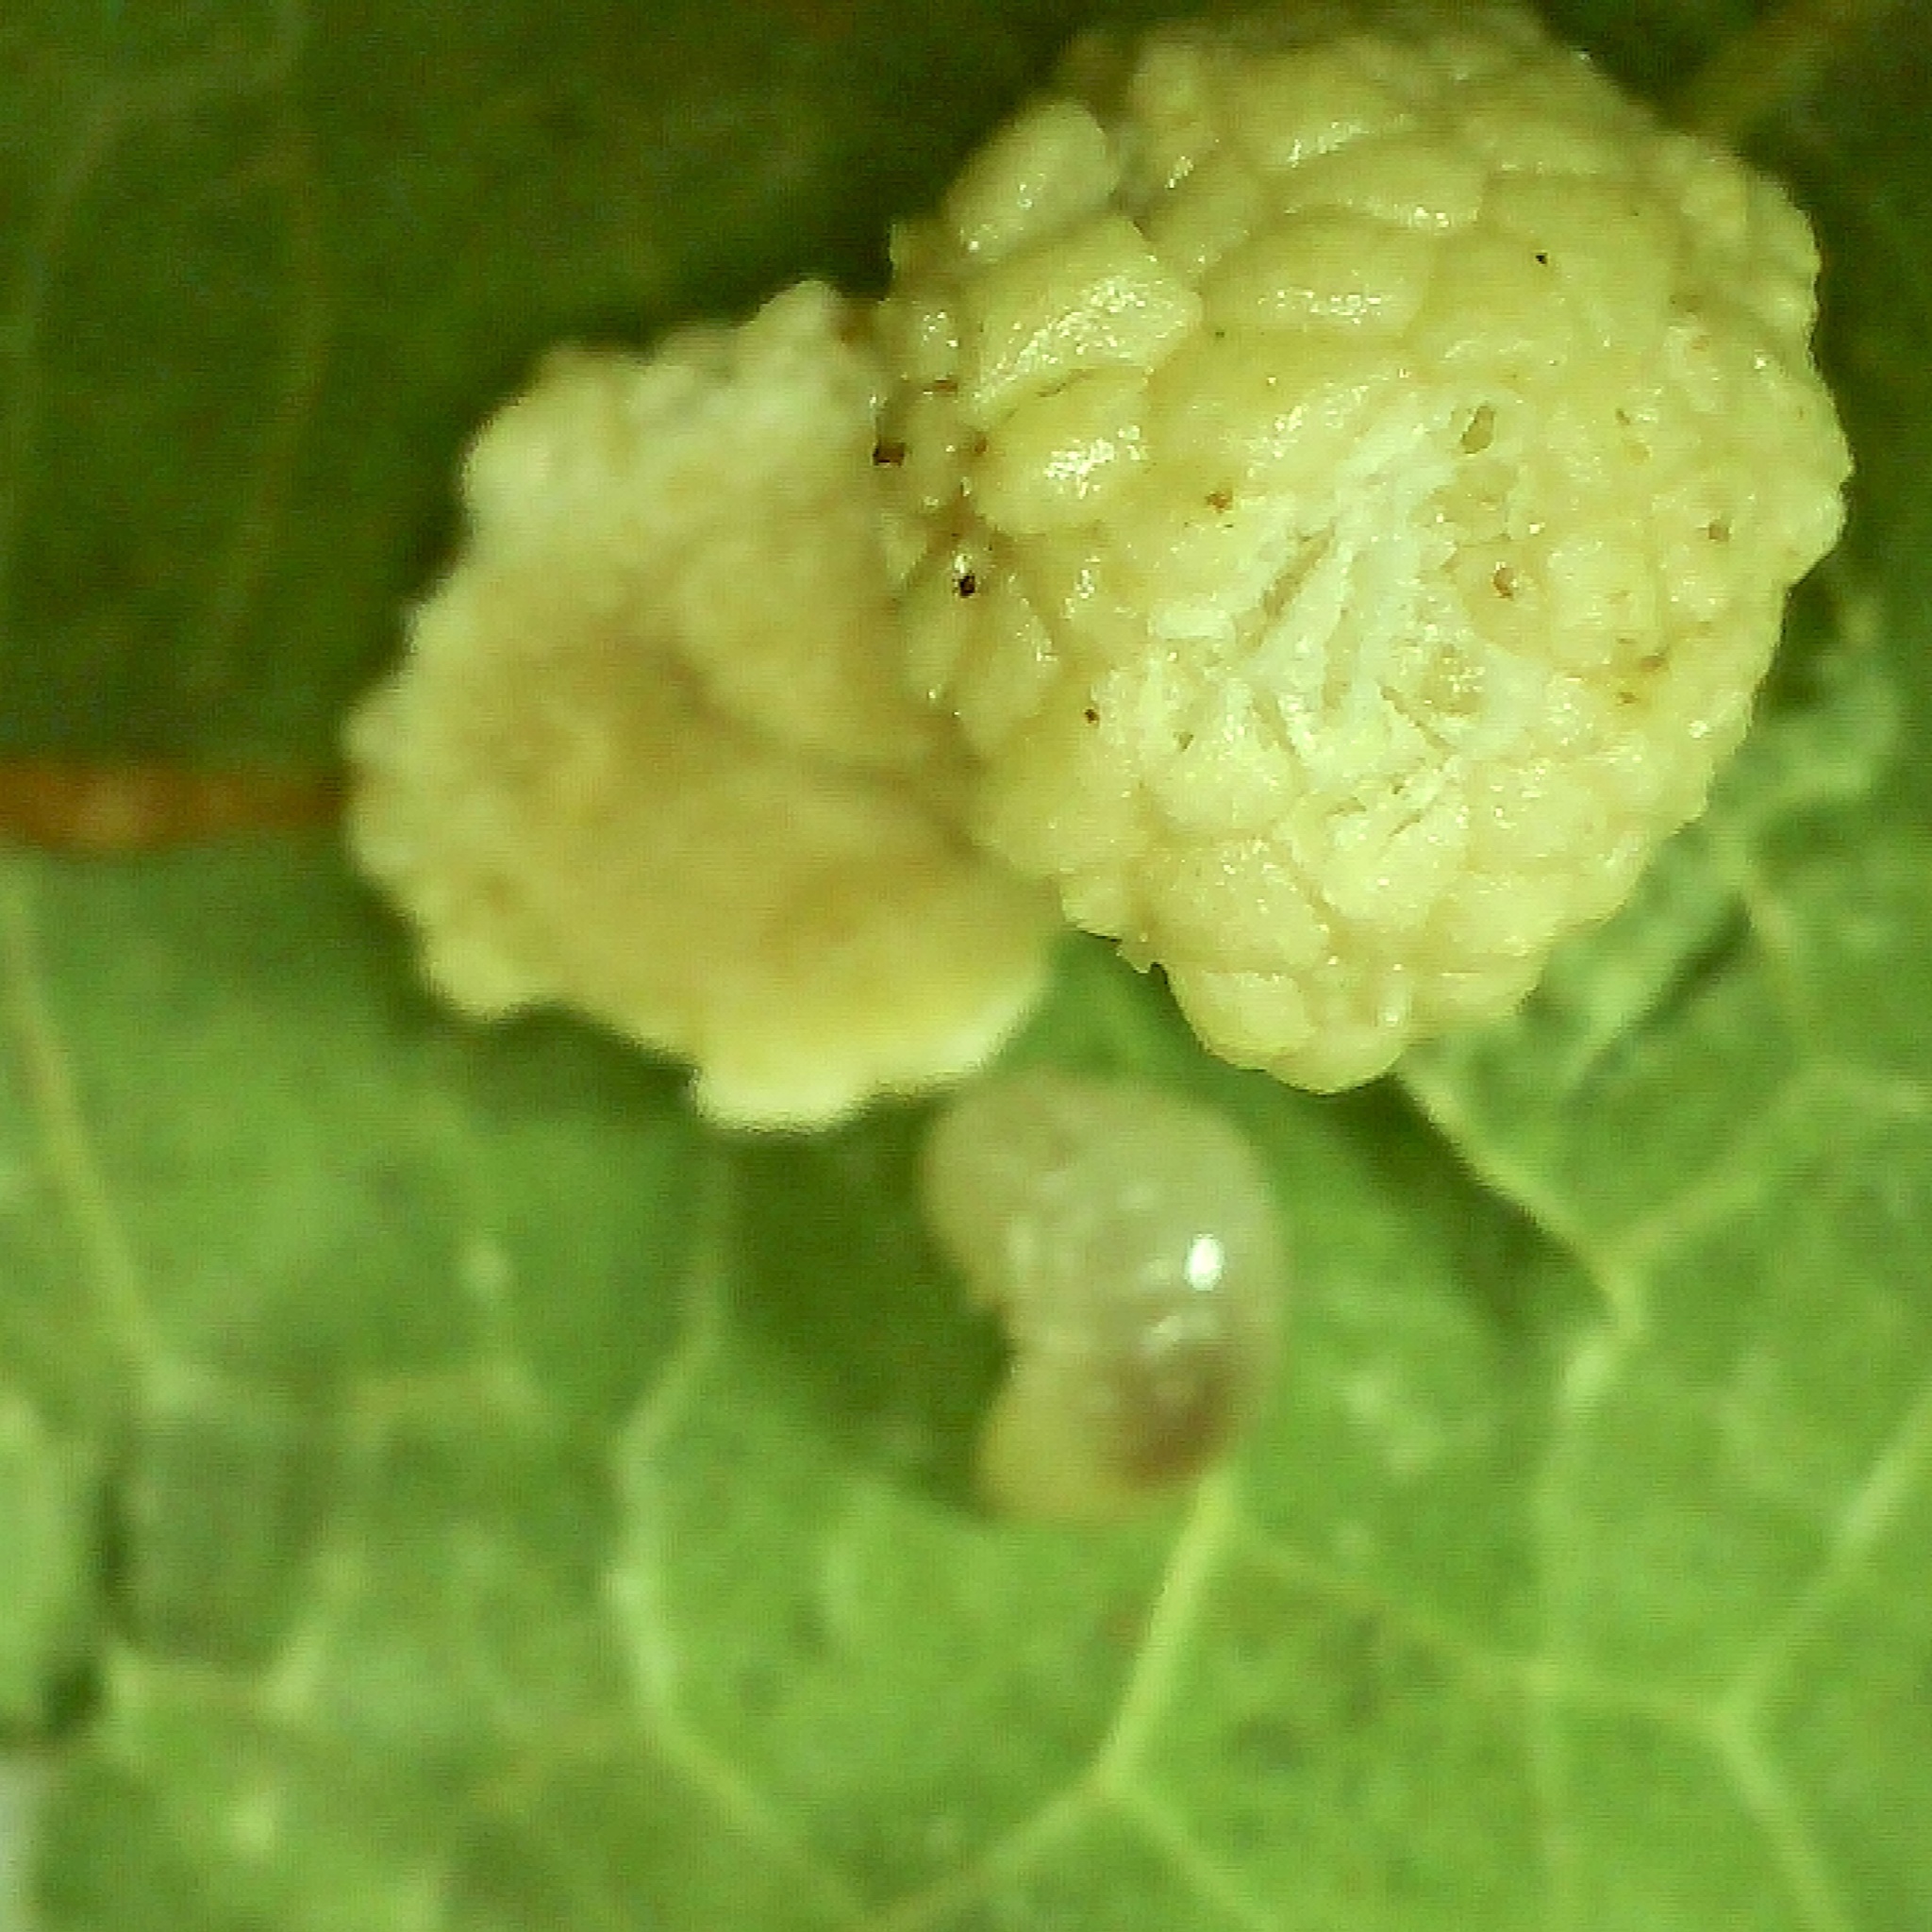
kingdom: Animalia
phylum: Arthropoda
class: Insecta
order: Hymenoptera
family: Cynipidae
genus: Acraspis
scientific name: Acraspis
